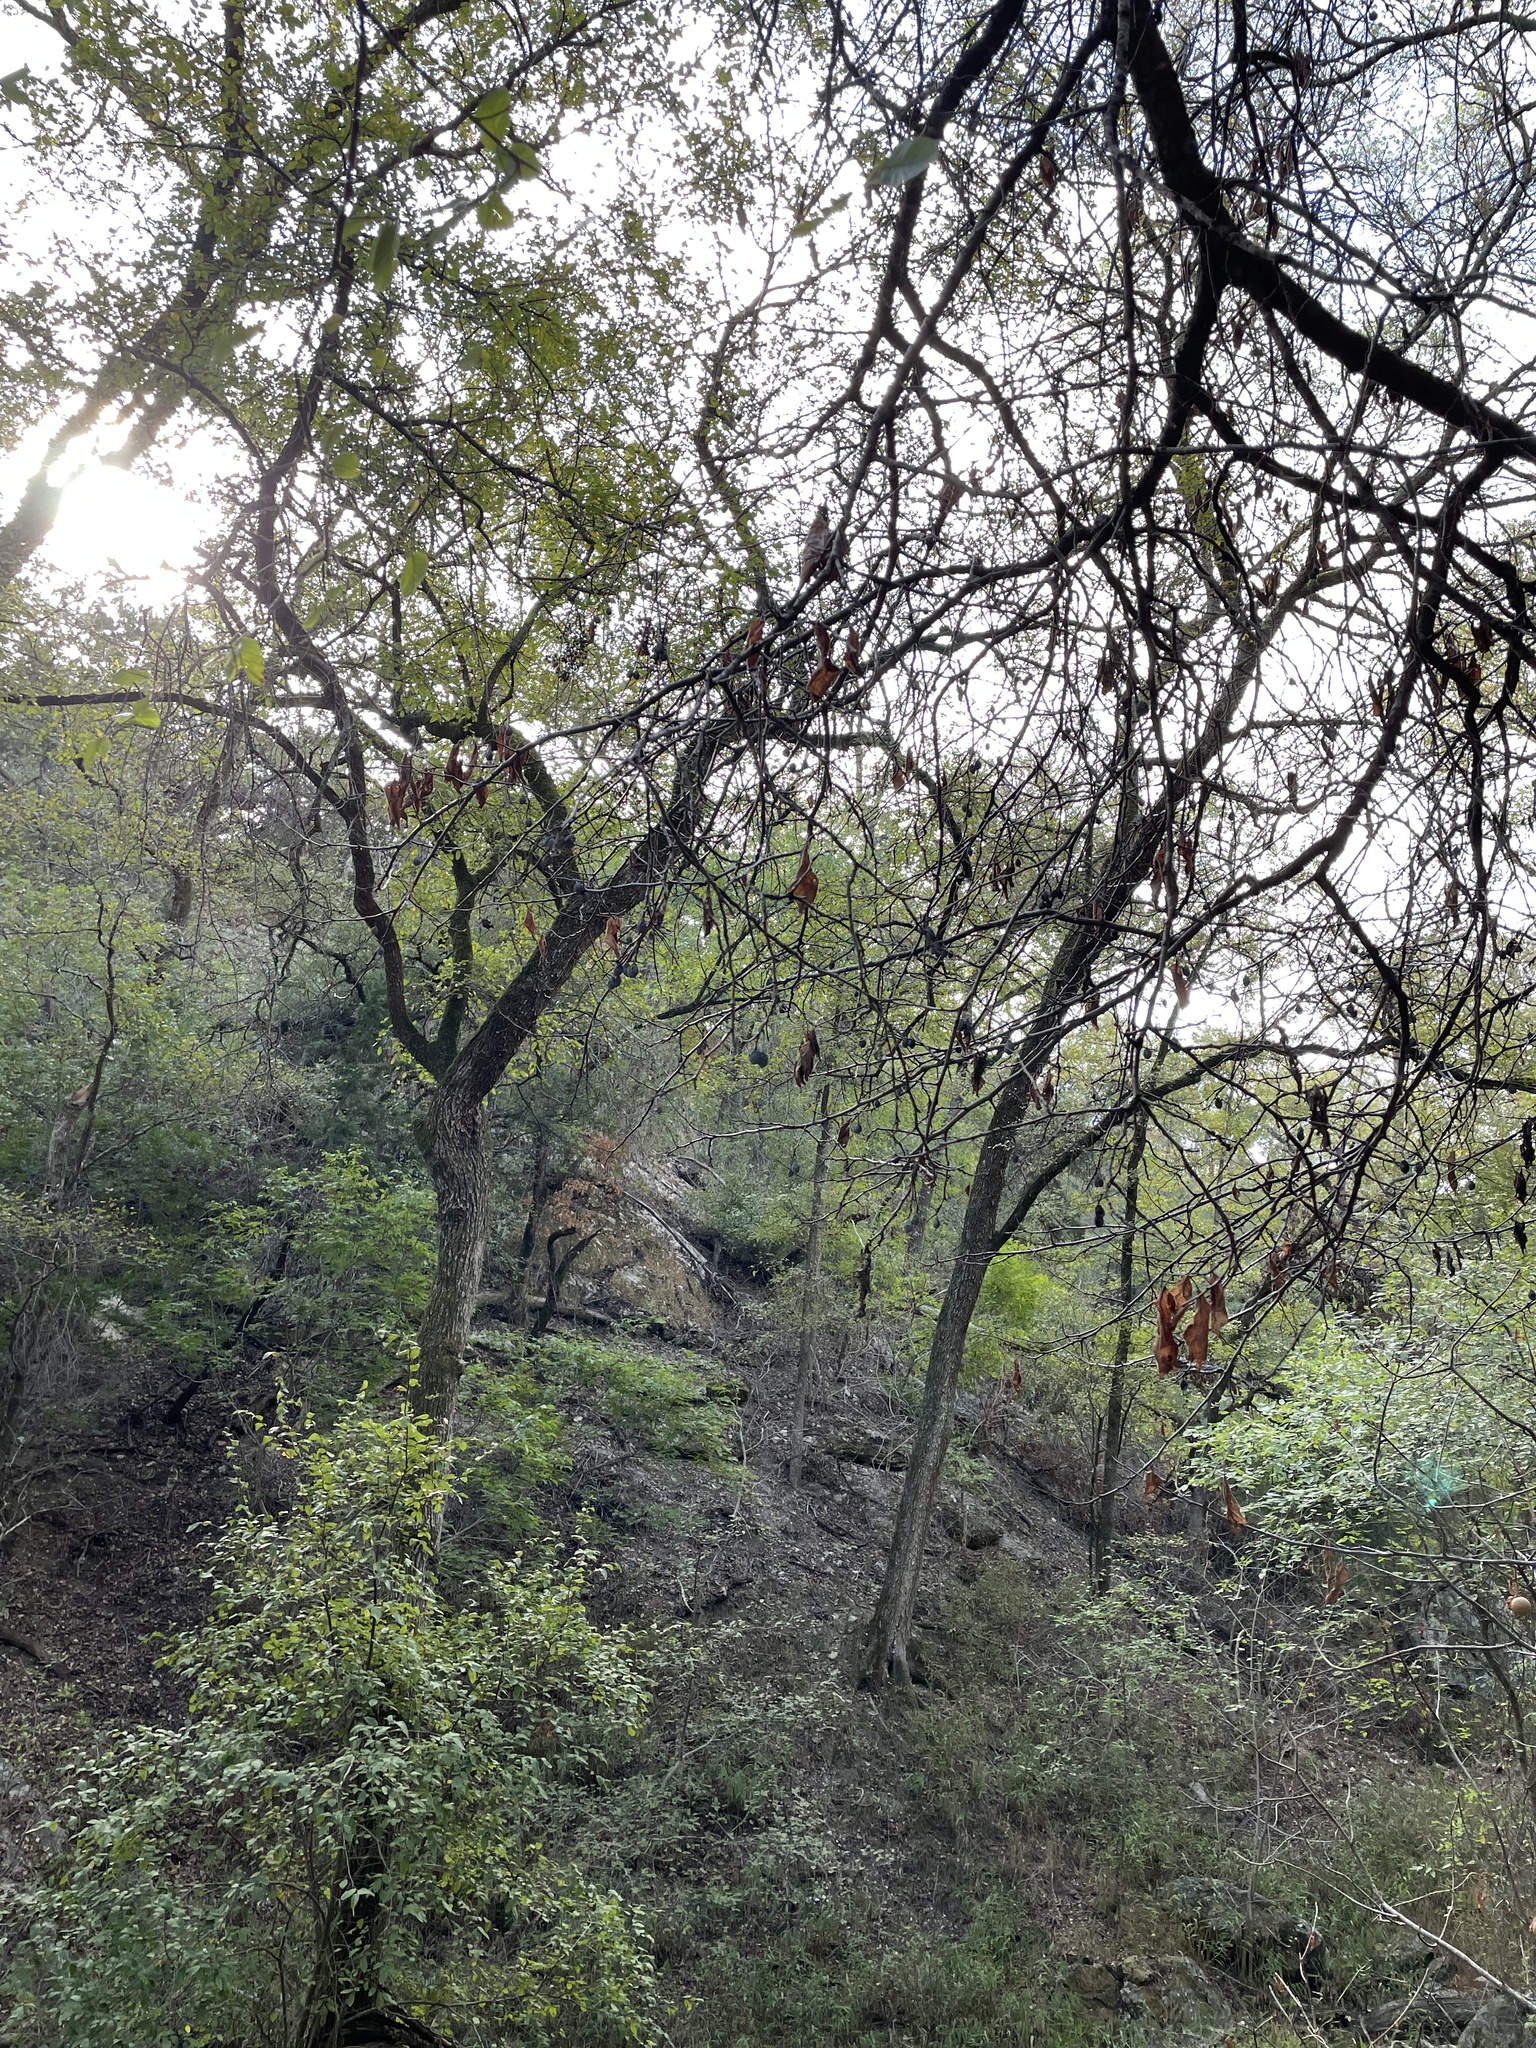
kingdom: Plantae
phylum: Tracheophyta
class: Magnoliopsida
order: Rosales
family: Rosaceae
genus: Prunus
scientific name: Prunus mexicana
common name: Mexican plum
